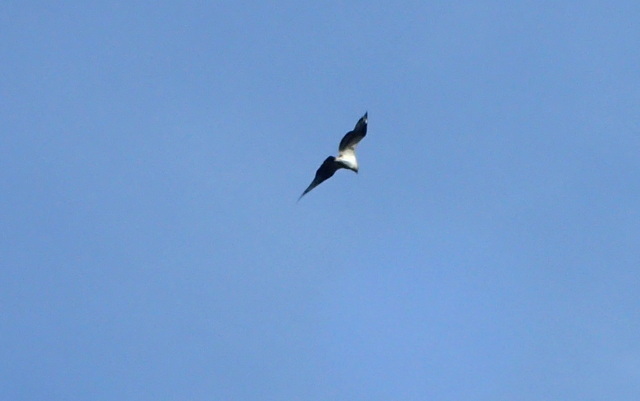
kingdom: Animalia
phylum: Chordata
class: Aves
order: Accipitriformes
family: Pandionidae
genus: Pandion
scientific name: Pandion haliaetus
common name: Osprey
